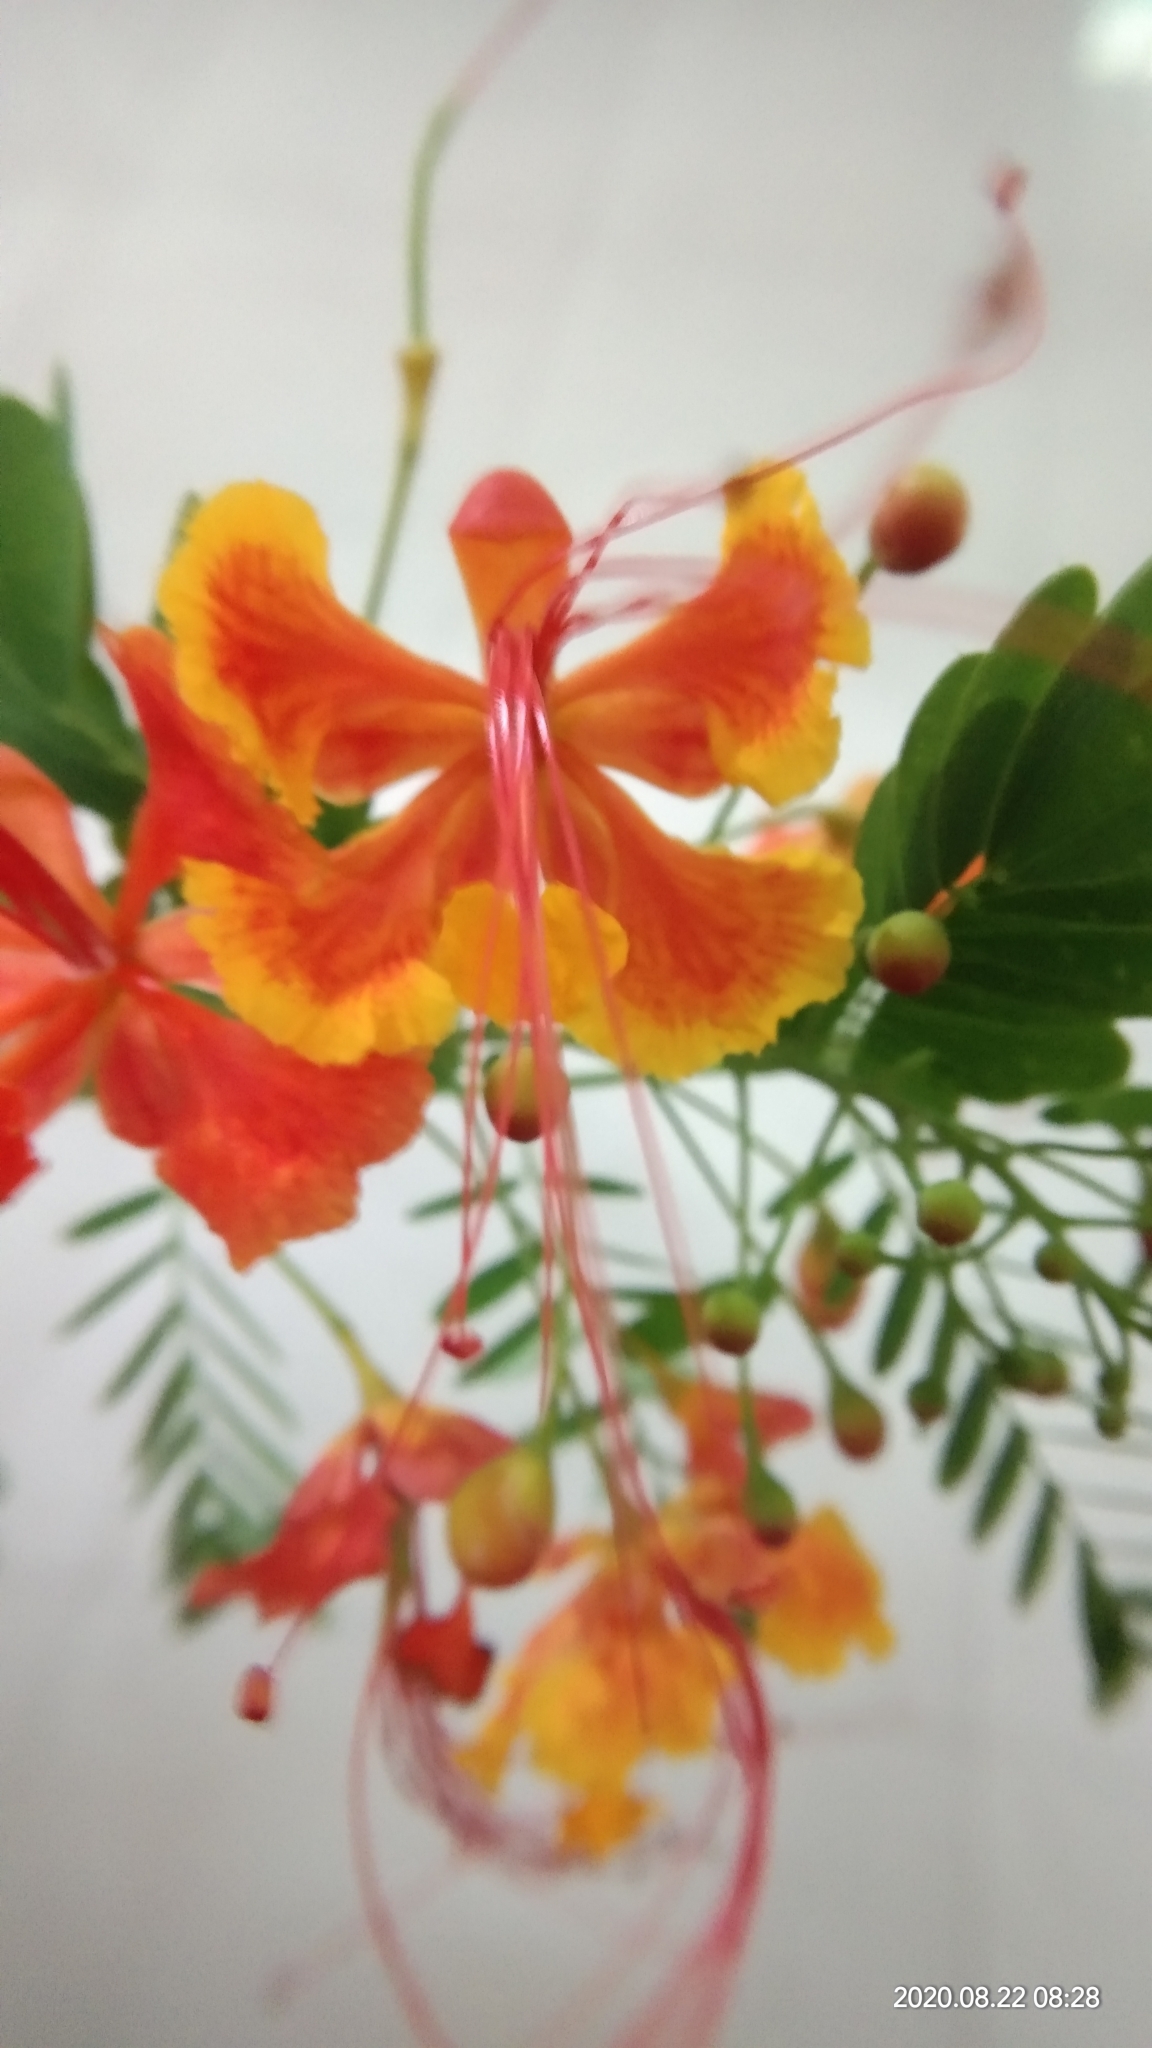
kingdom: Plantae
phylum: Tracheophyta
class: Magnoliopsida
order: Fabales
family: Fabaceae
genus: Caesalpinia
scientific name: Caesalpinia pulcherrima
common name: Pride-of-barbados
